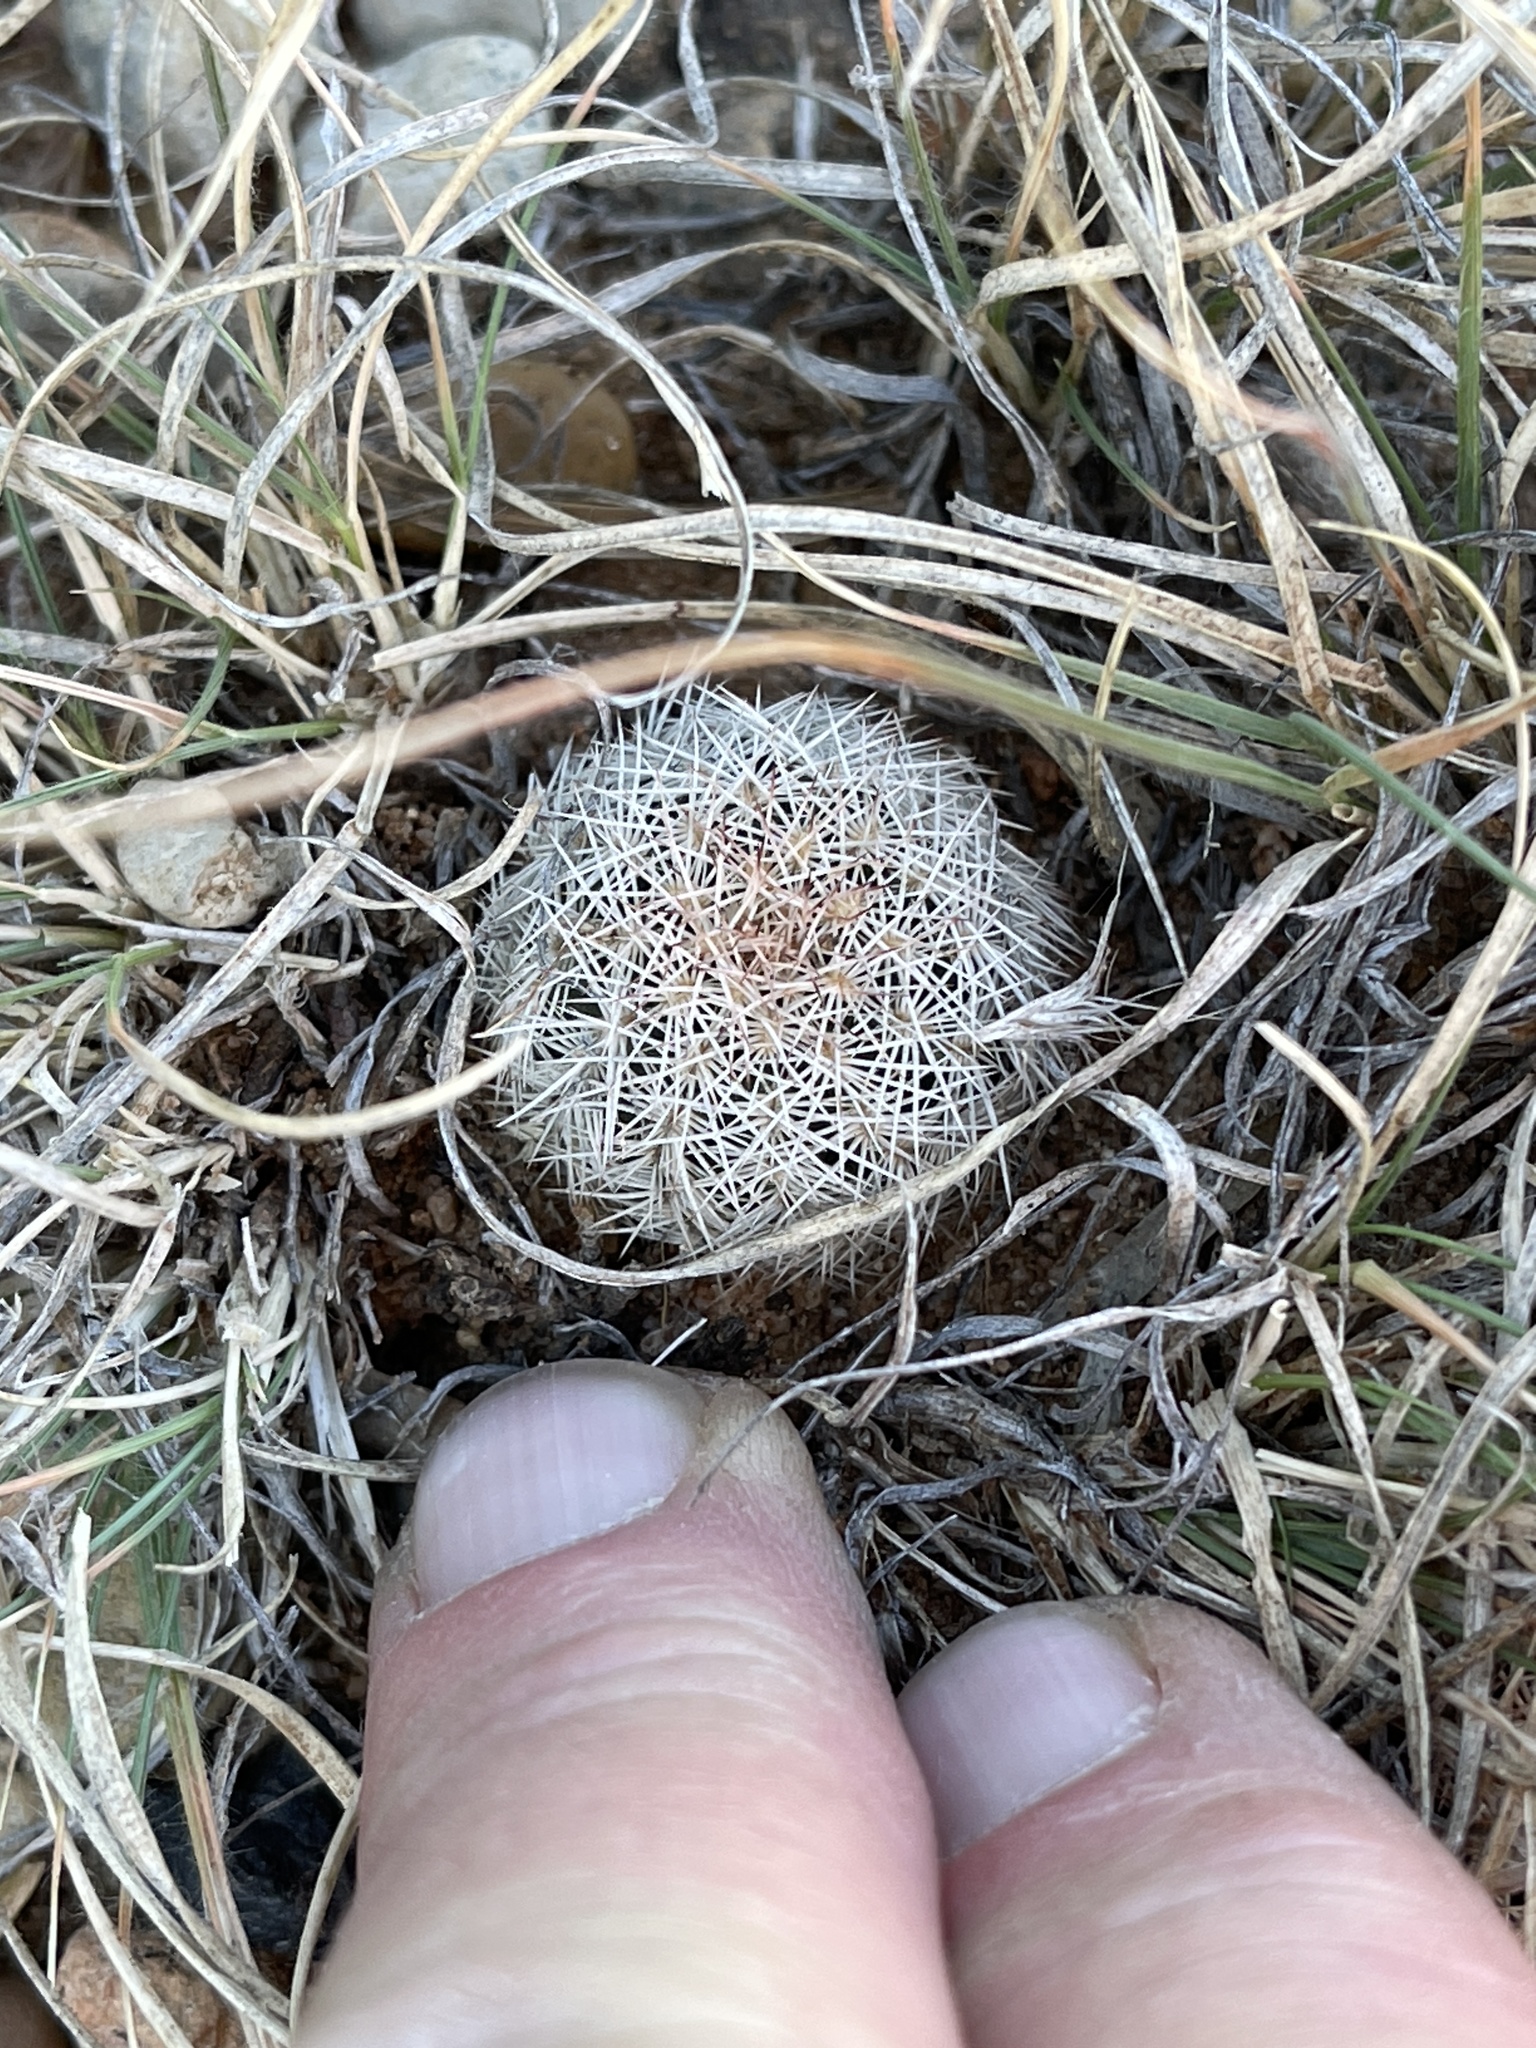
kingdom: Plantae
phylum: Tracheophyta
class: Magnoliopsida
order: Caryophyllales
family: Cactaceae
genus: Echinocereus
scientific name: Echinocereus reichenbachii
